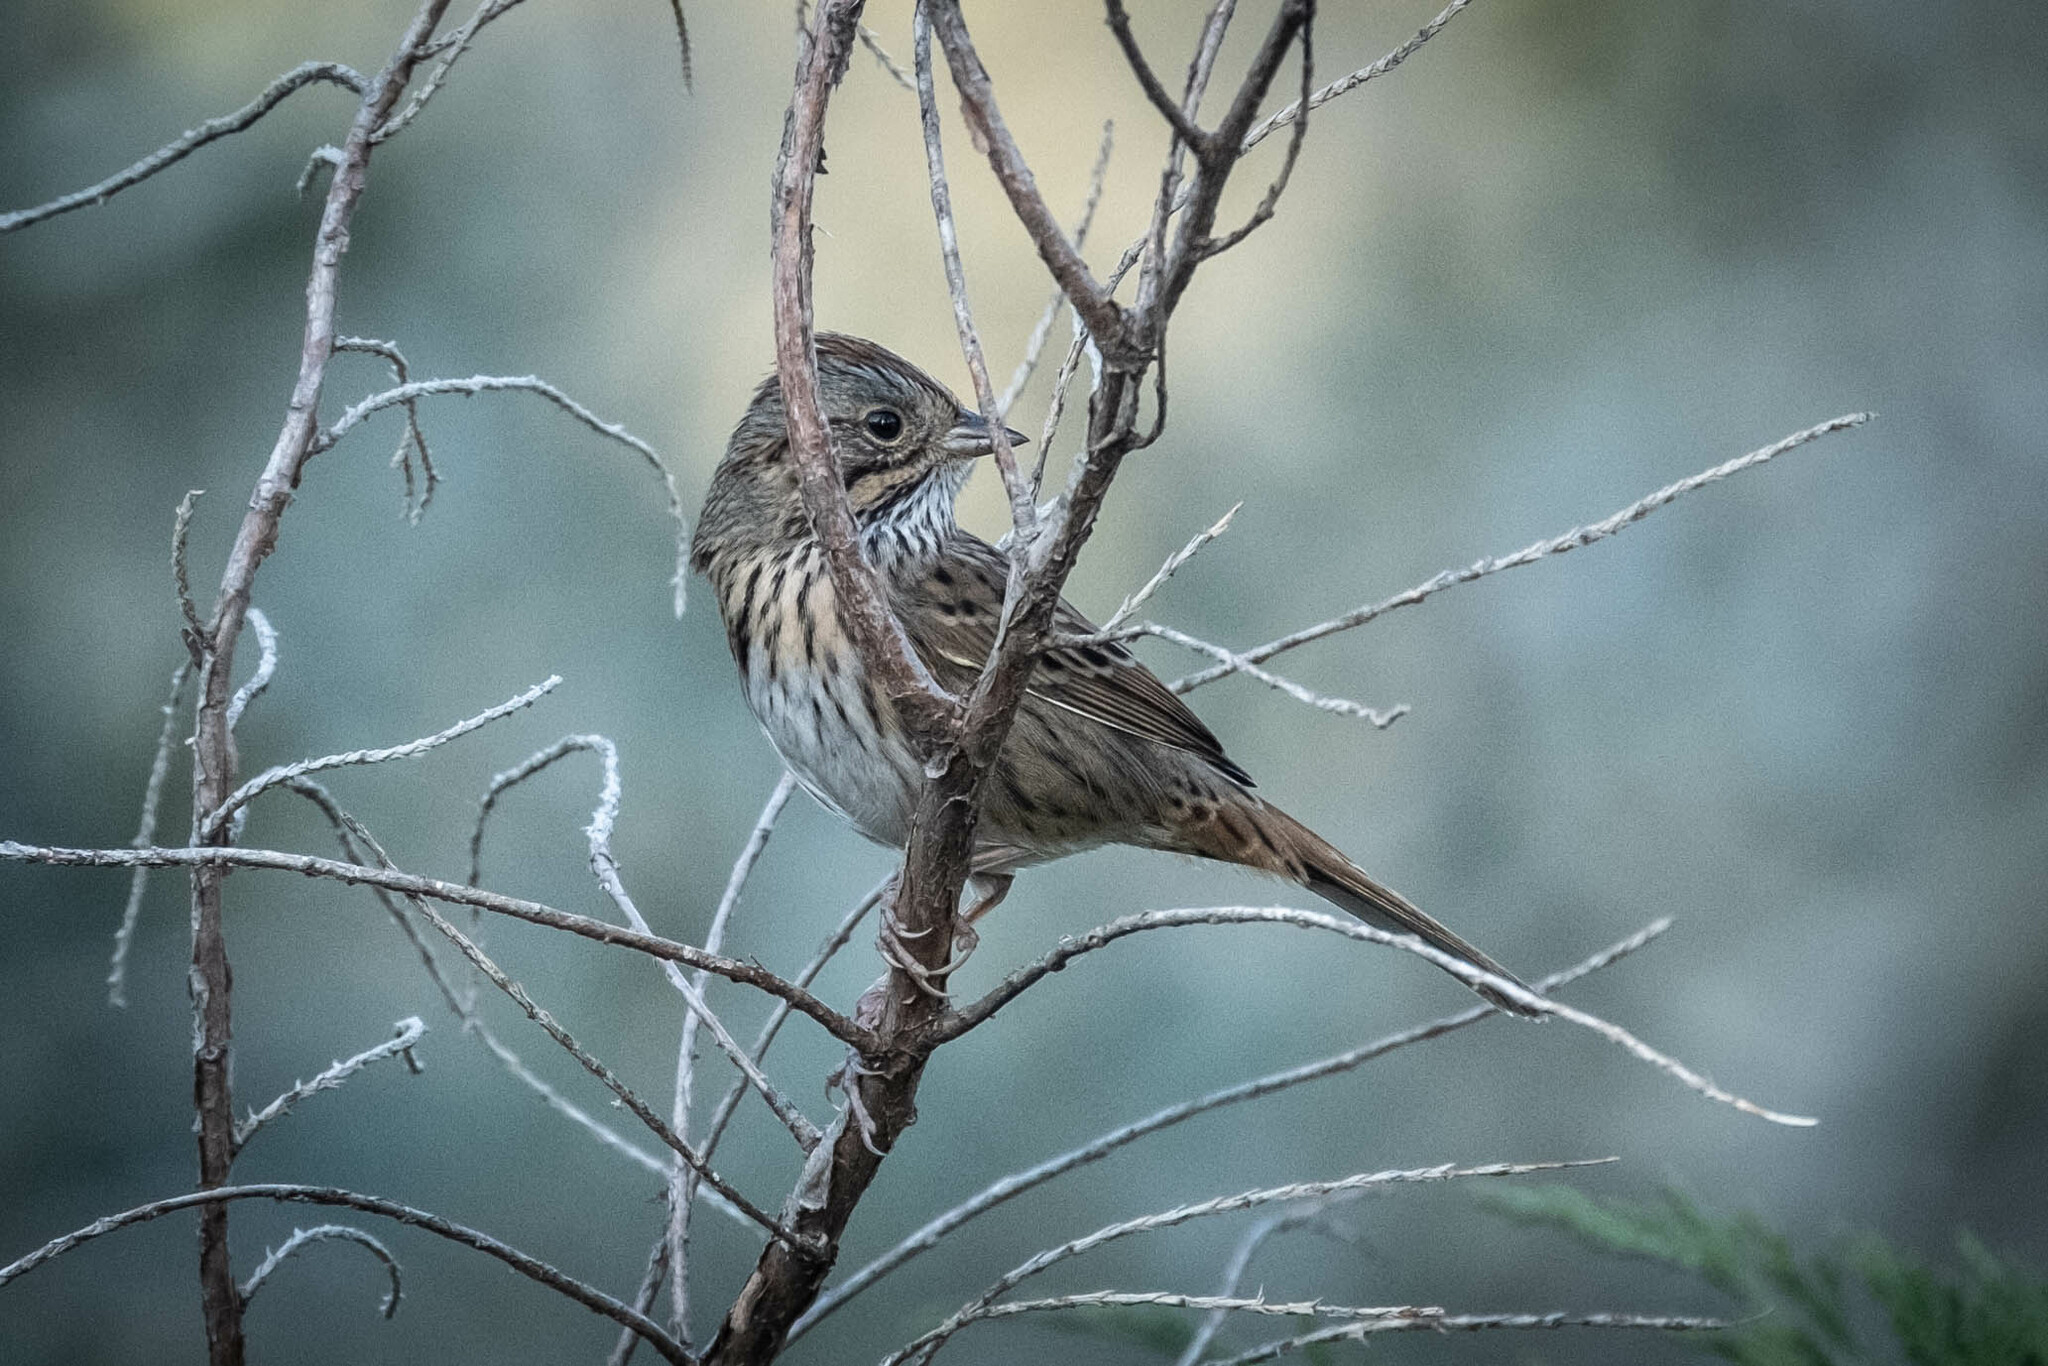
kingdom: Animalia
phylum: Chordata
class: Aves
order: Passeriformes
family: Passerellidae
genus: Melospiza
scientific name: Melospiza lincolnii
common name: Lincoln's sparrow
